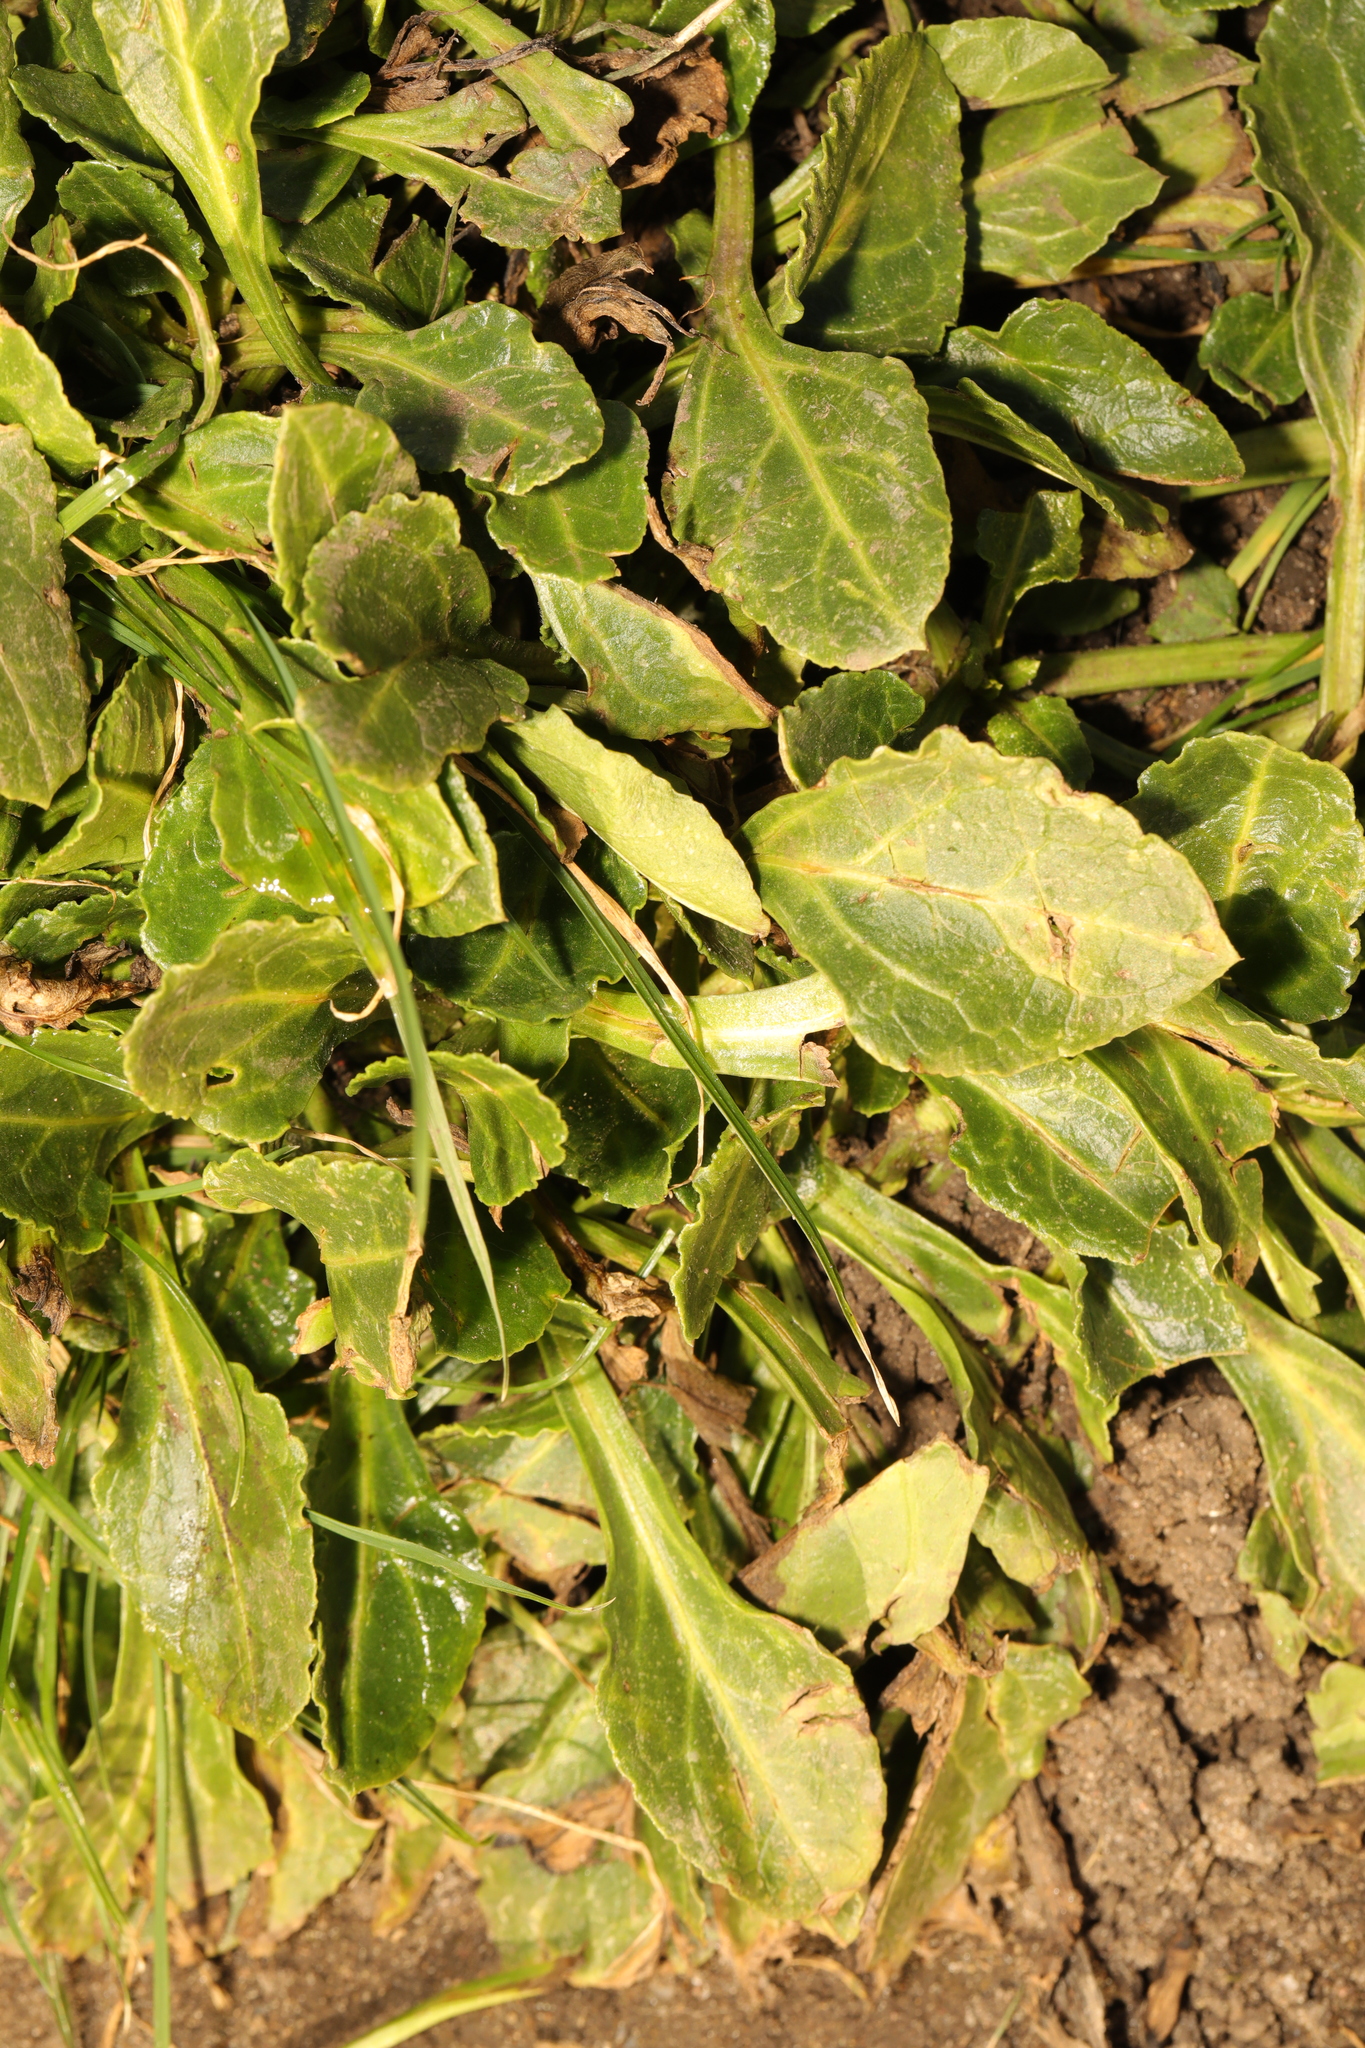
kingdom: Plantae
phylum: Tracheophyta
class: Magnoliopsida
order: Caryophyllales
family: Amaranthaceae
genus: Beta
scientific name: Beta vulgaris
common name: Beet
